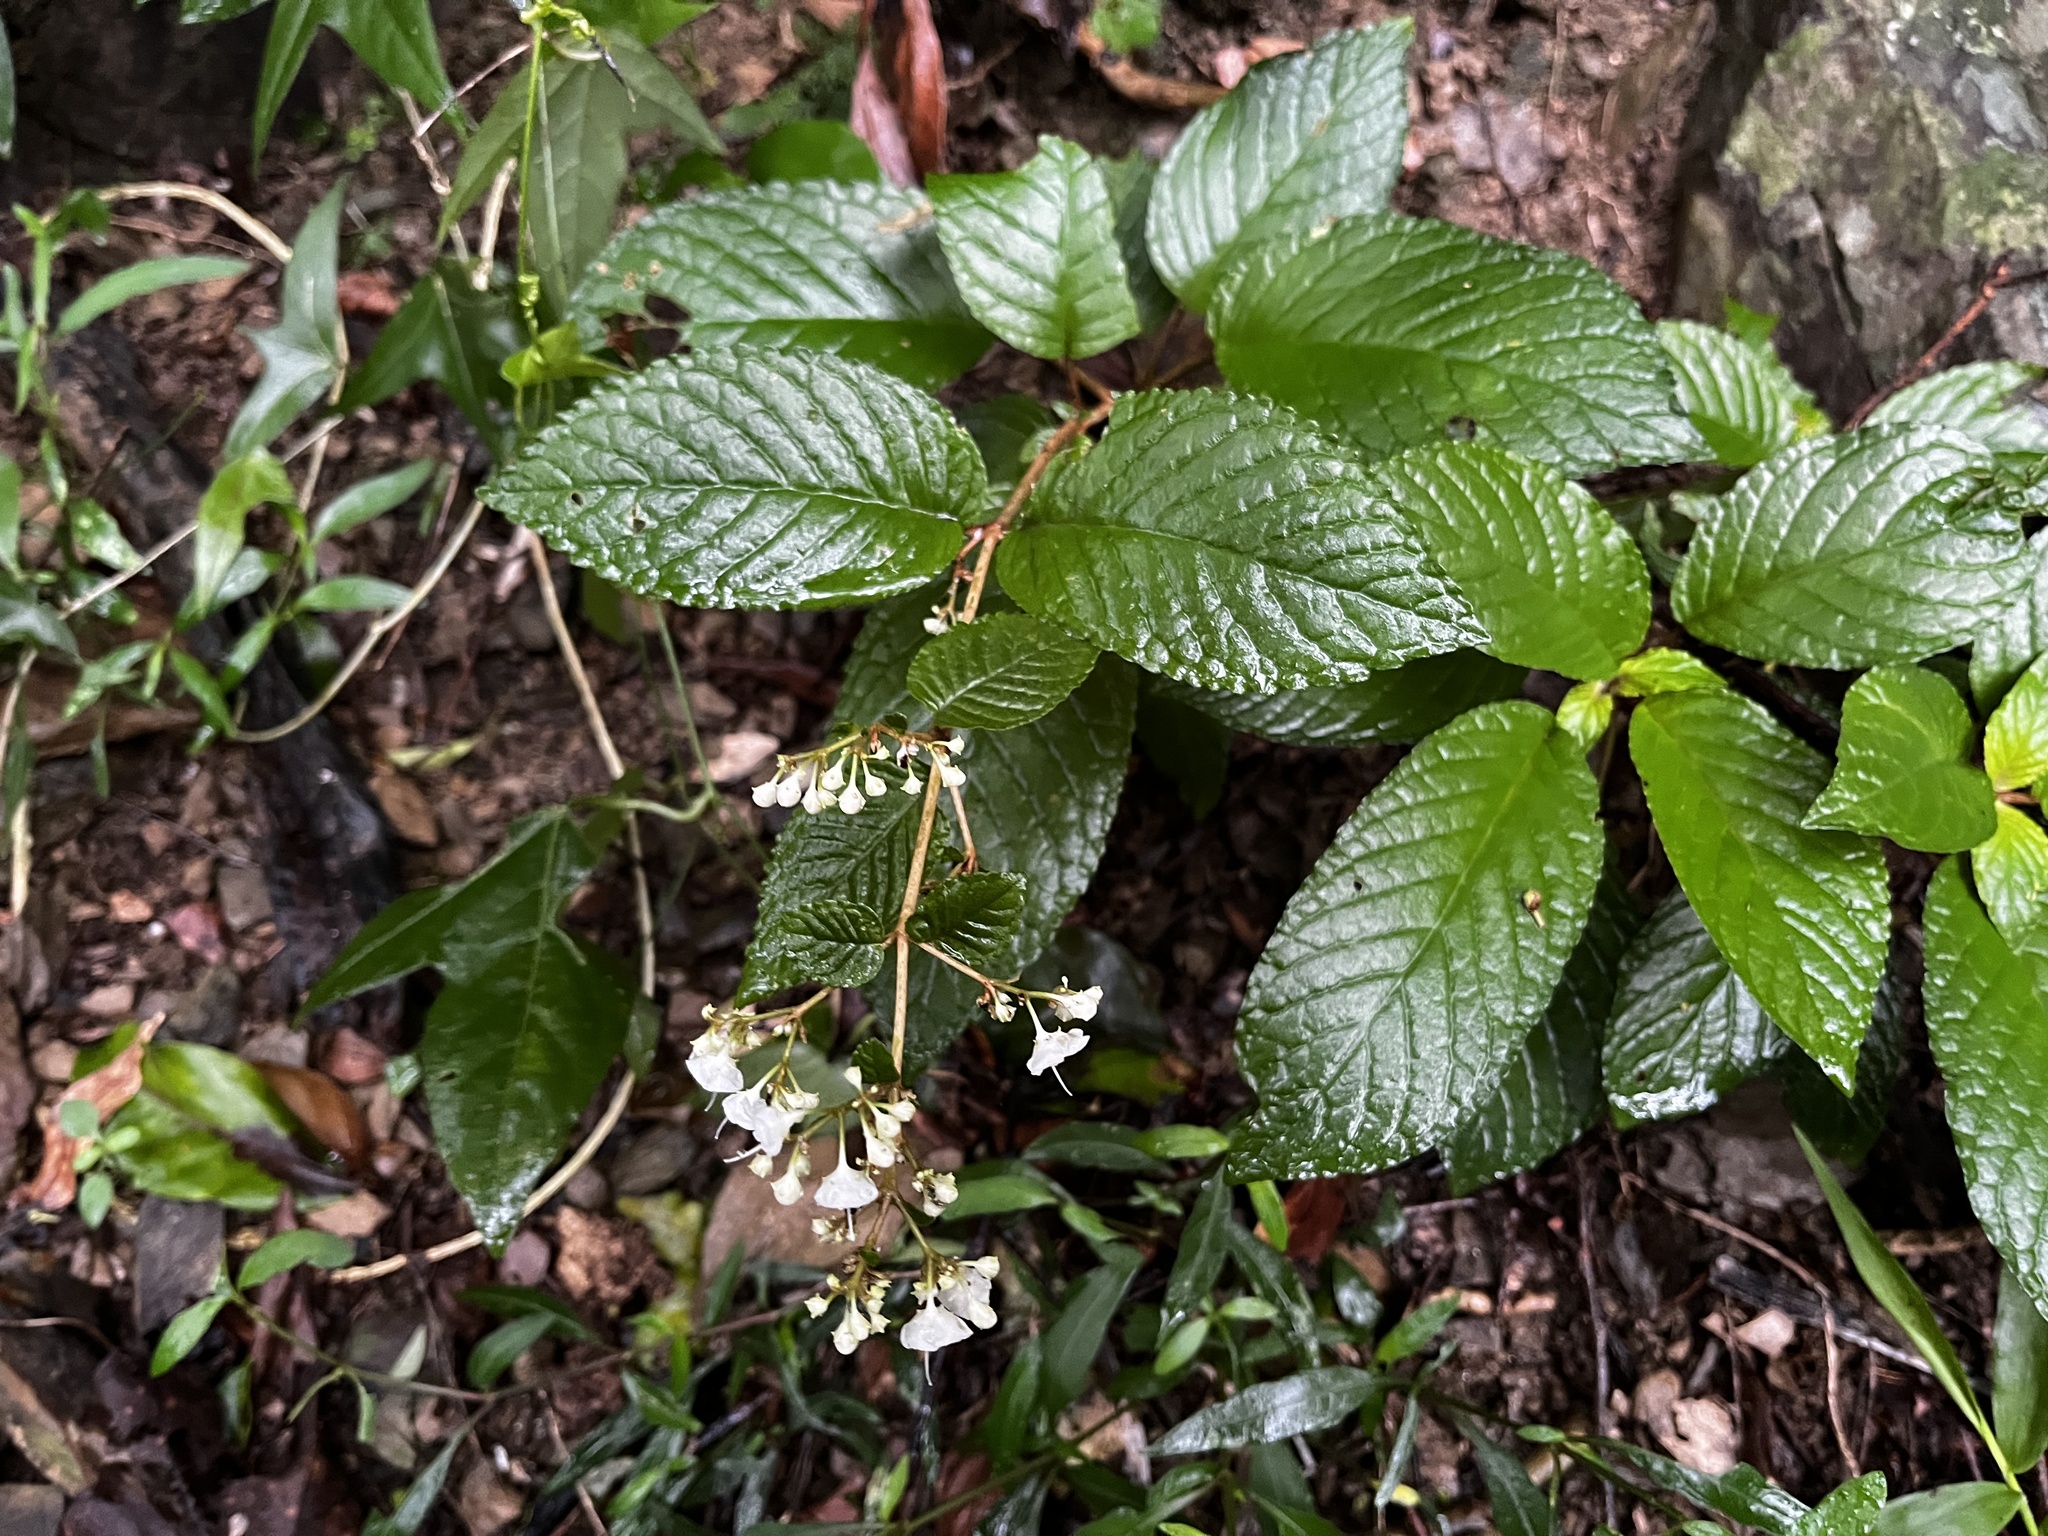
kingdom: Plantae
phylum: Tracheophyta
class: Magnoliopsida
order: Lamiales
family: Gesneriaceae
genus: Paraboea
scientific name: Paraboea swinhoei
